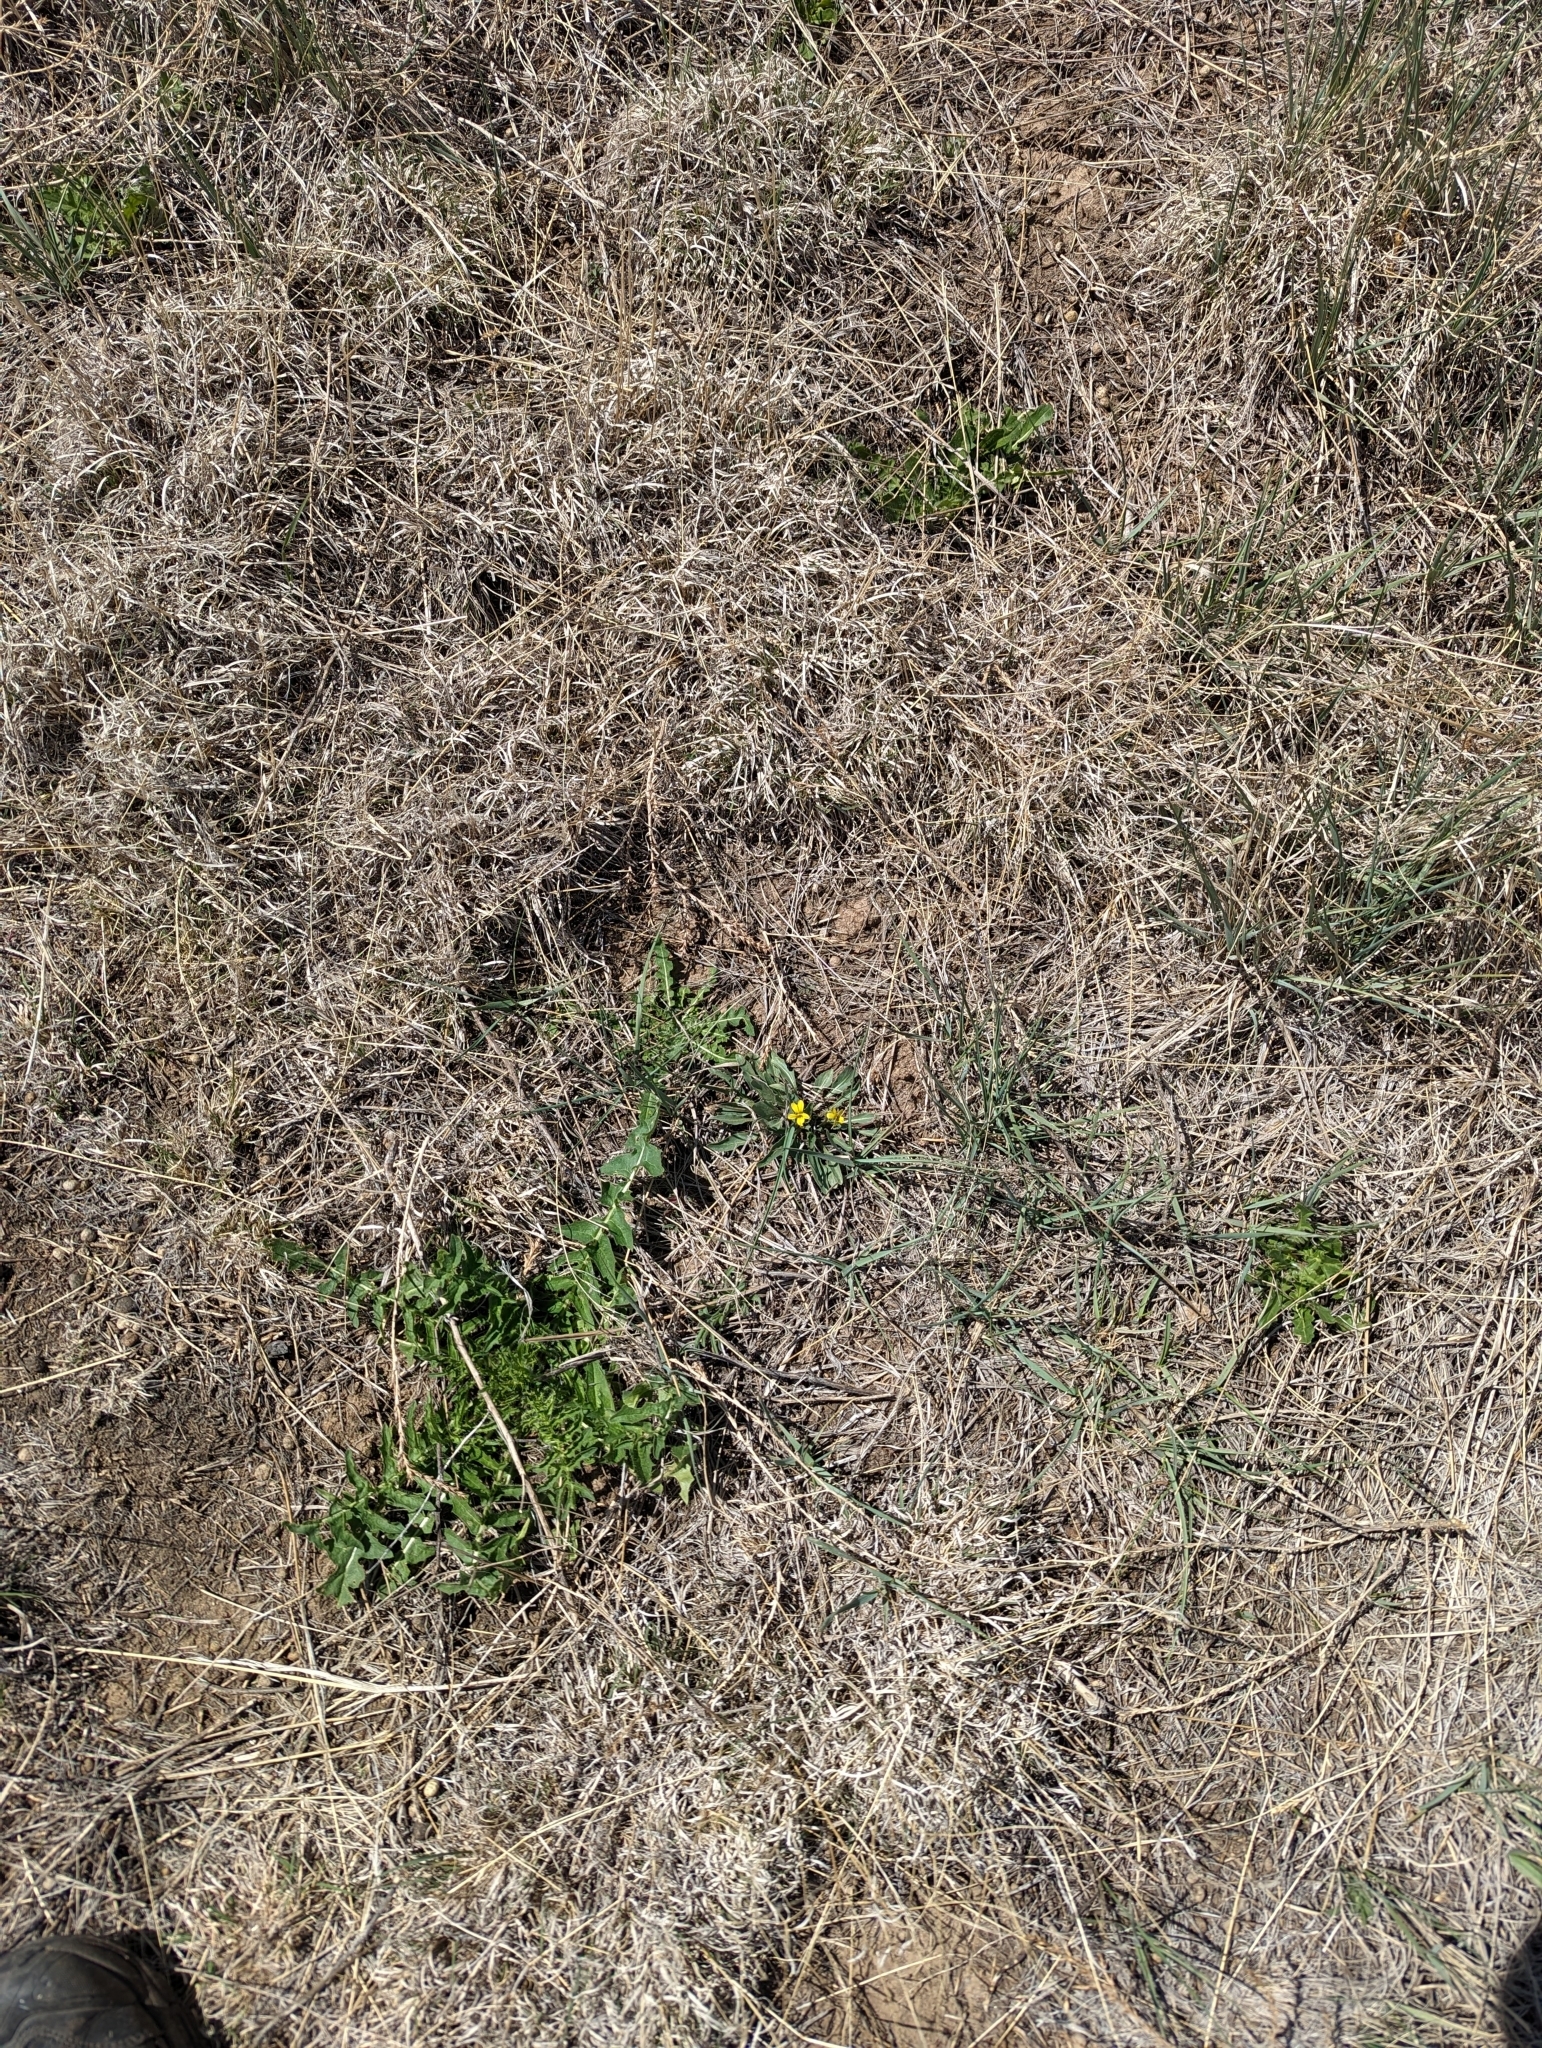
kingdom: Plantae
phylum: Tracheophyta
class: Magnoliopsida
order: Malpighiales
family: Violaceae
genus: Viola
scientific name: Viola nuttallii
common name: Yellow prairie violet
